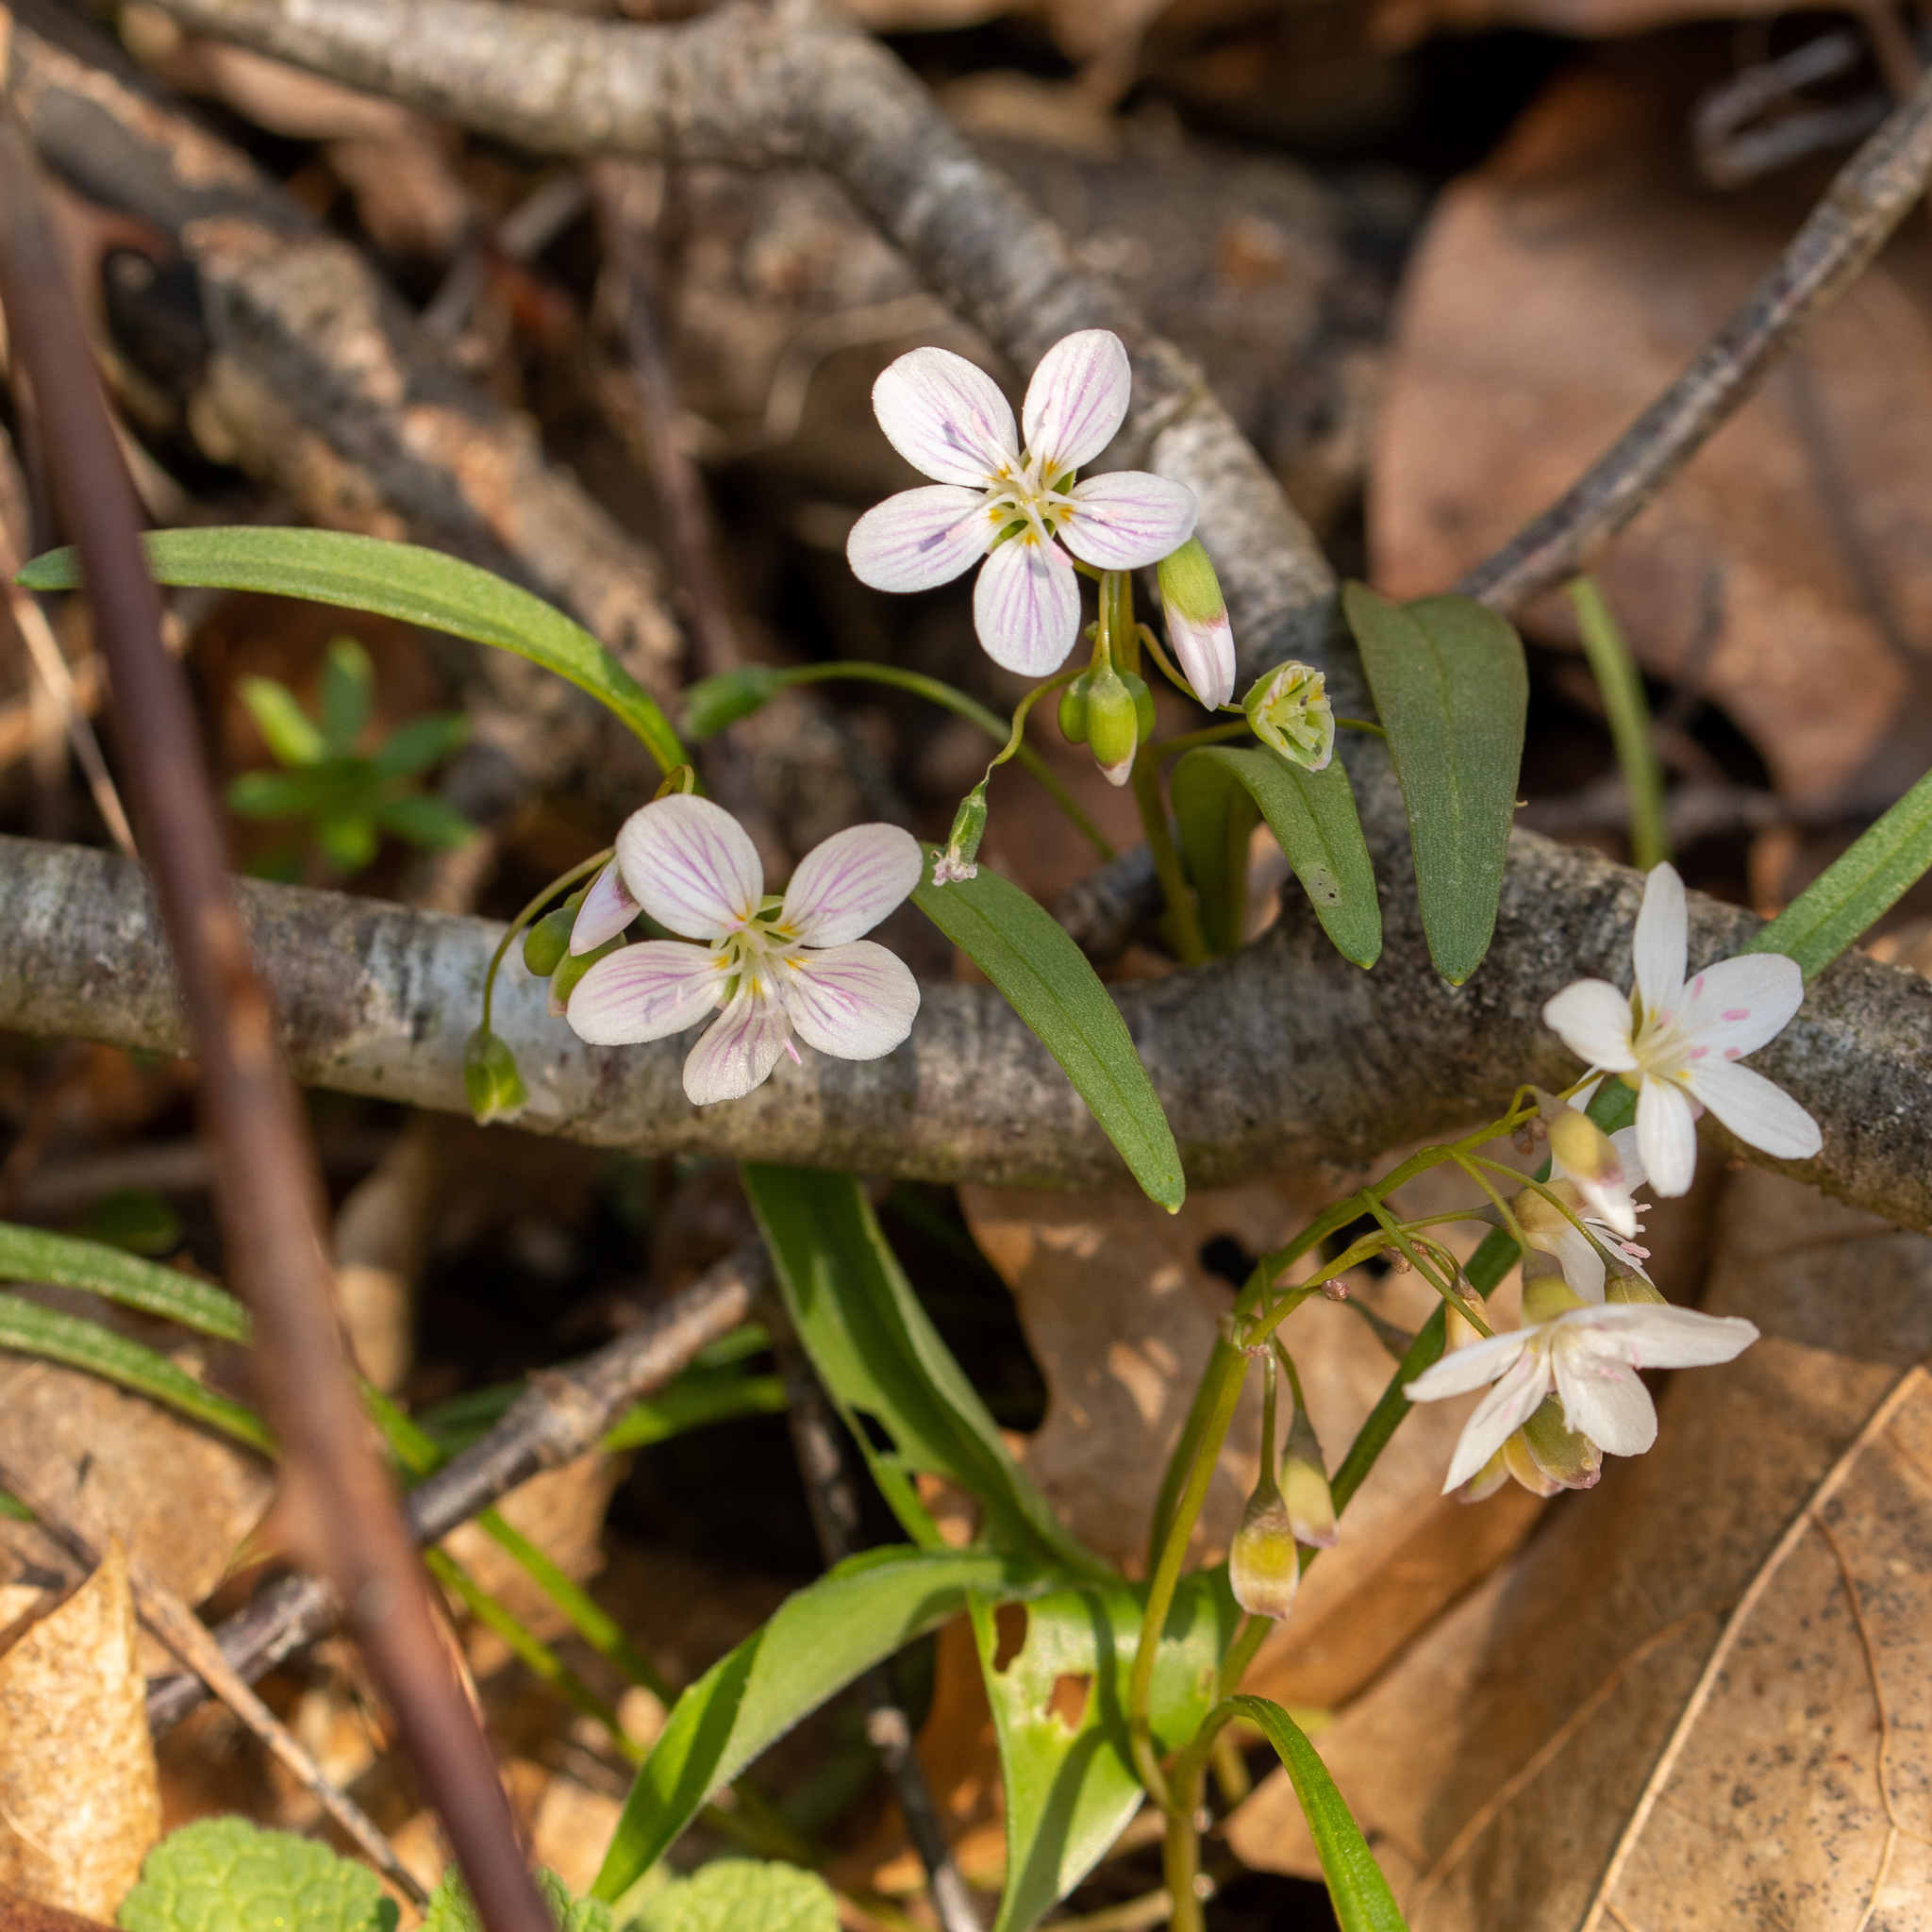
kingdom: Plantae
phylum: Tracheophyta
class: Magnoliopsida
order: Caryophyllales
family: Montiaceae
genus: Claytonia
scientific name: Claytonia virginica
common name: Virginia springbeauty
